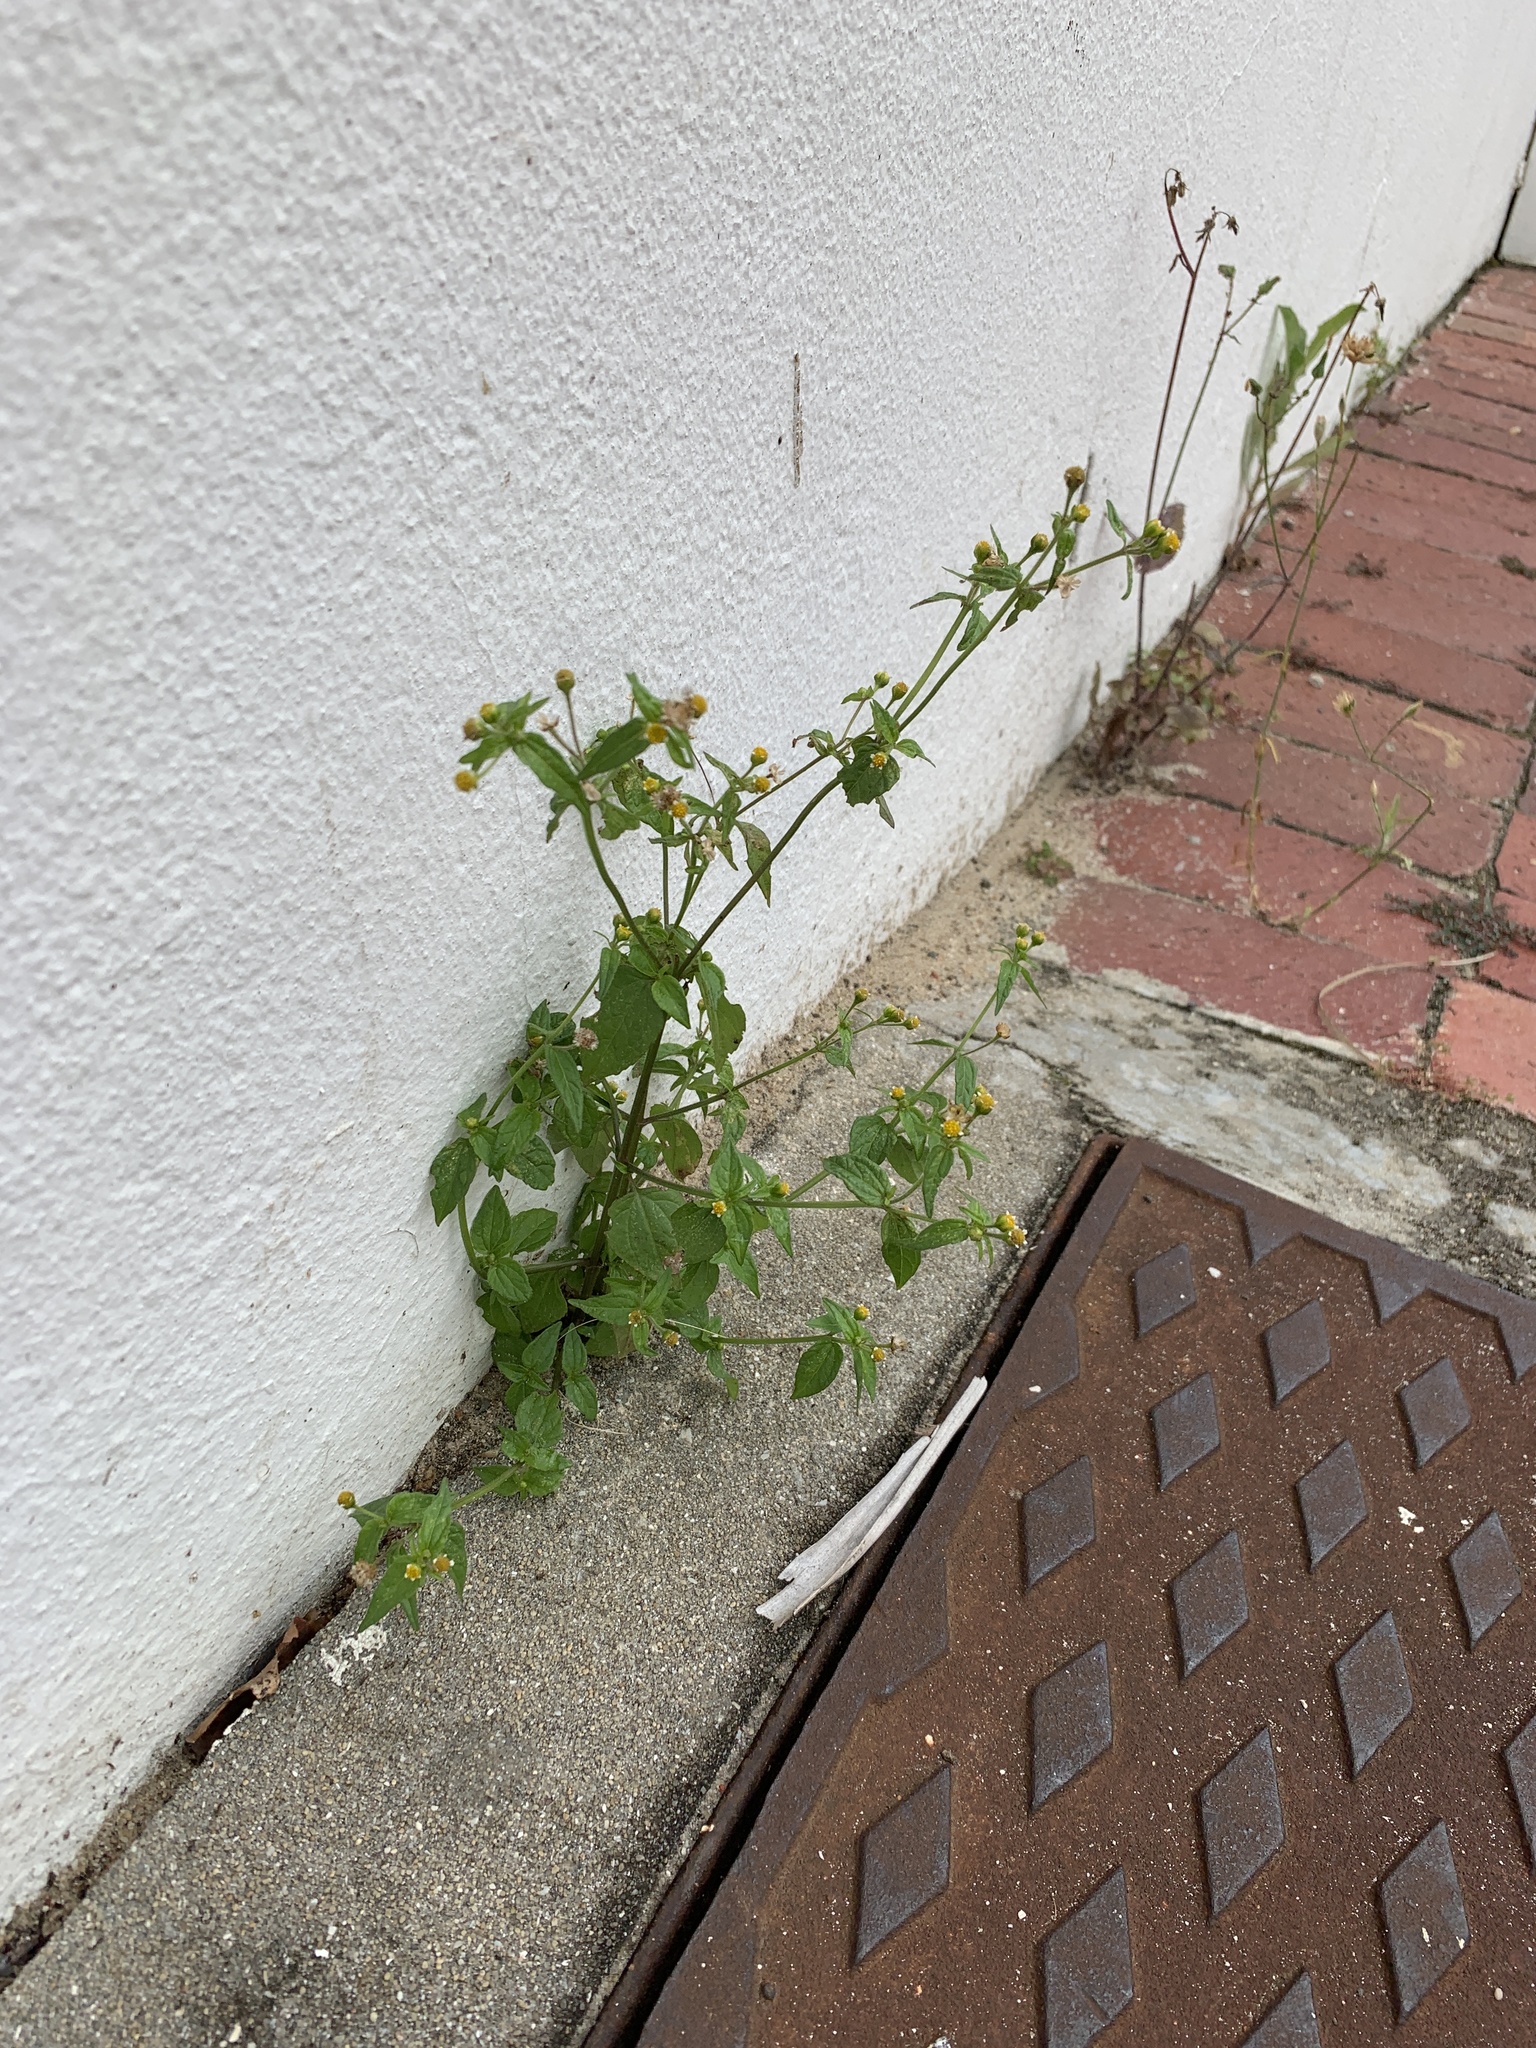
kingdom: Plantae
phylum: Tracheophyta
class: Magnoliopsida
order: Asterales
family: Asteraceae
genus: Galinsoga
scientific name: Galinsoga parviflora
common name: Gallant soldier
